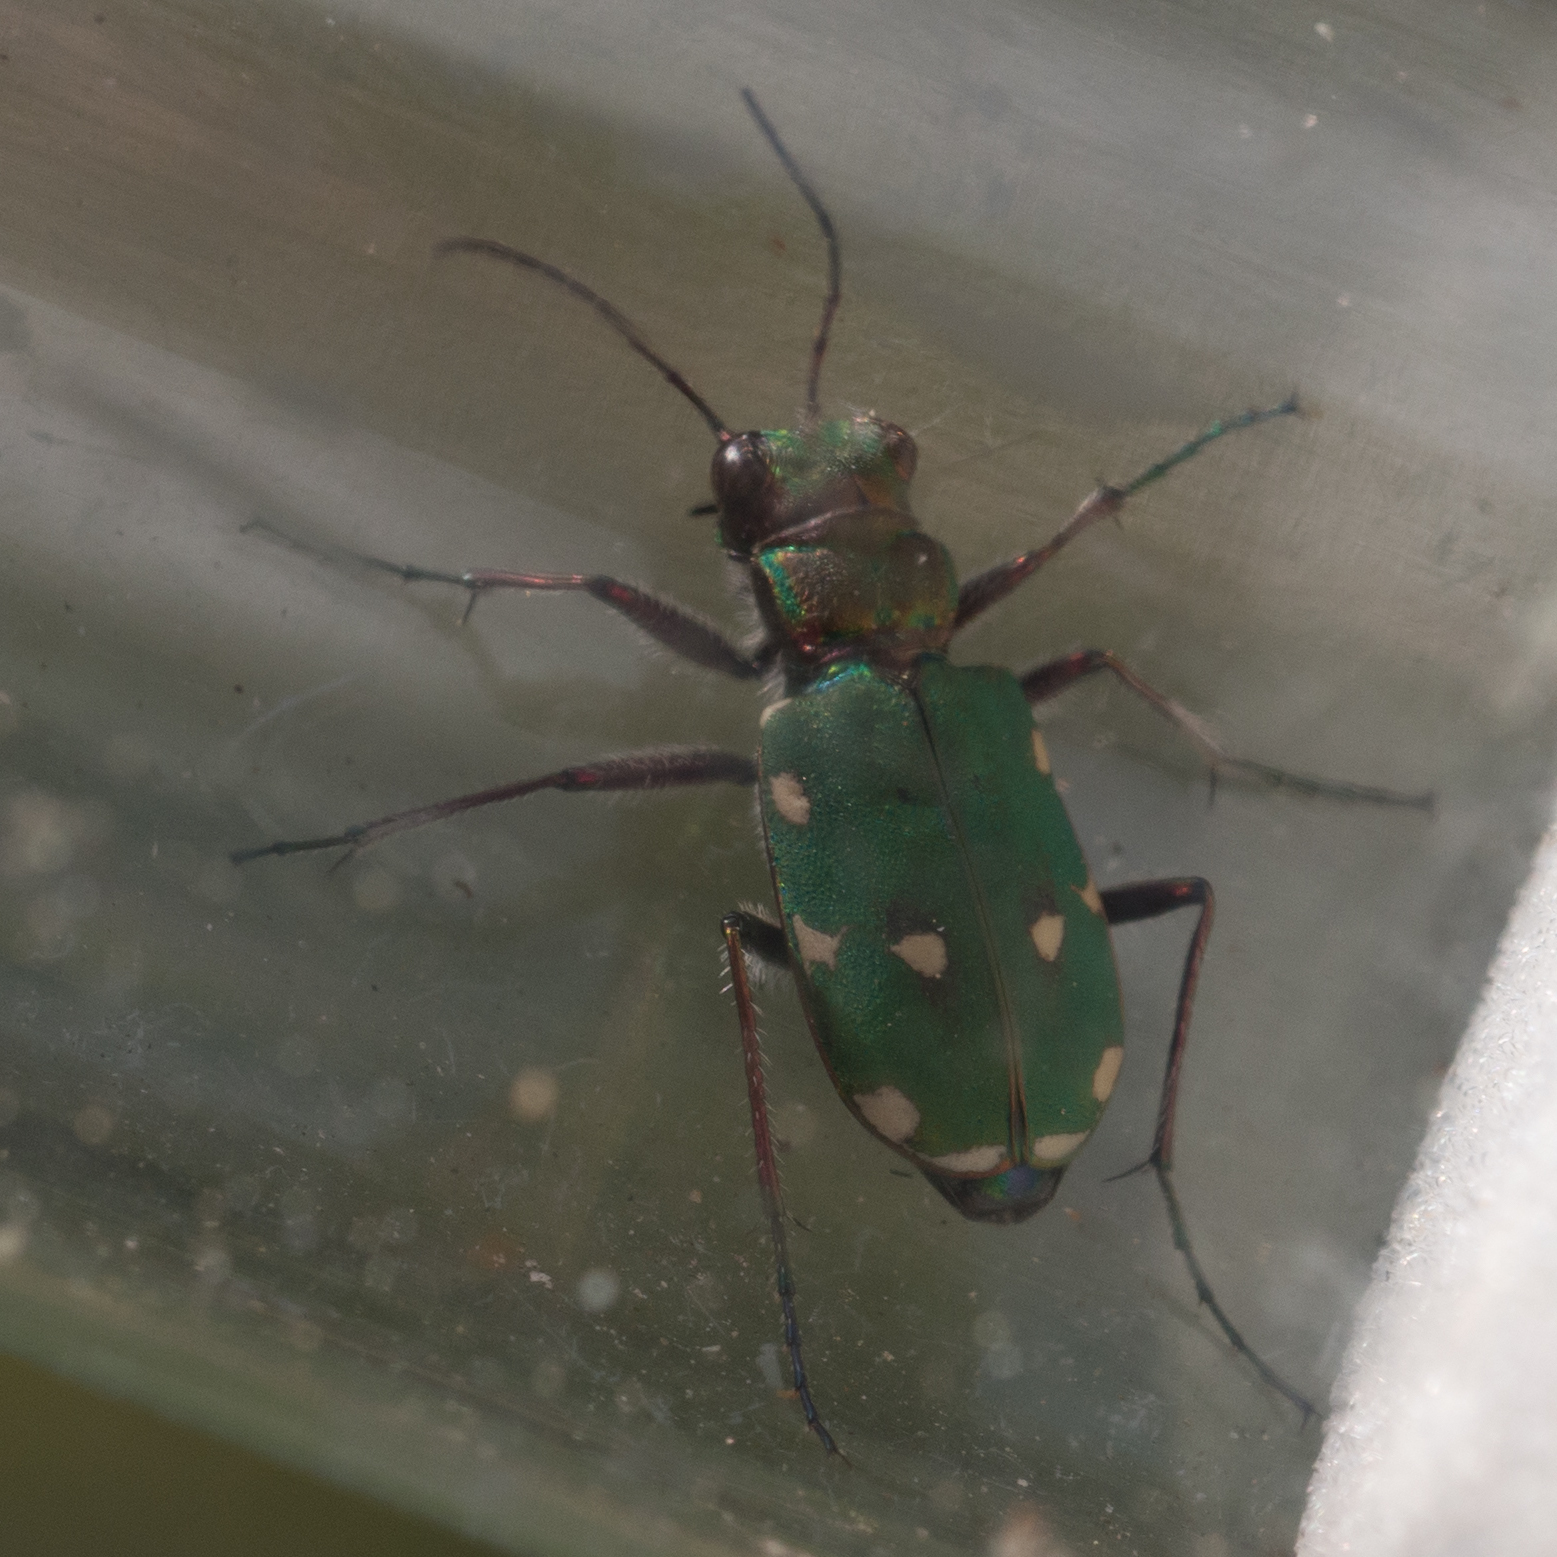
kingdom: Animalia
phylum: Arthropoda
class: Insecta
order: Coleoptera
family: Carabidae
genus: Cicindela
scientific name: Cicindela campestris
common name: Common tiger beetle
